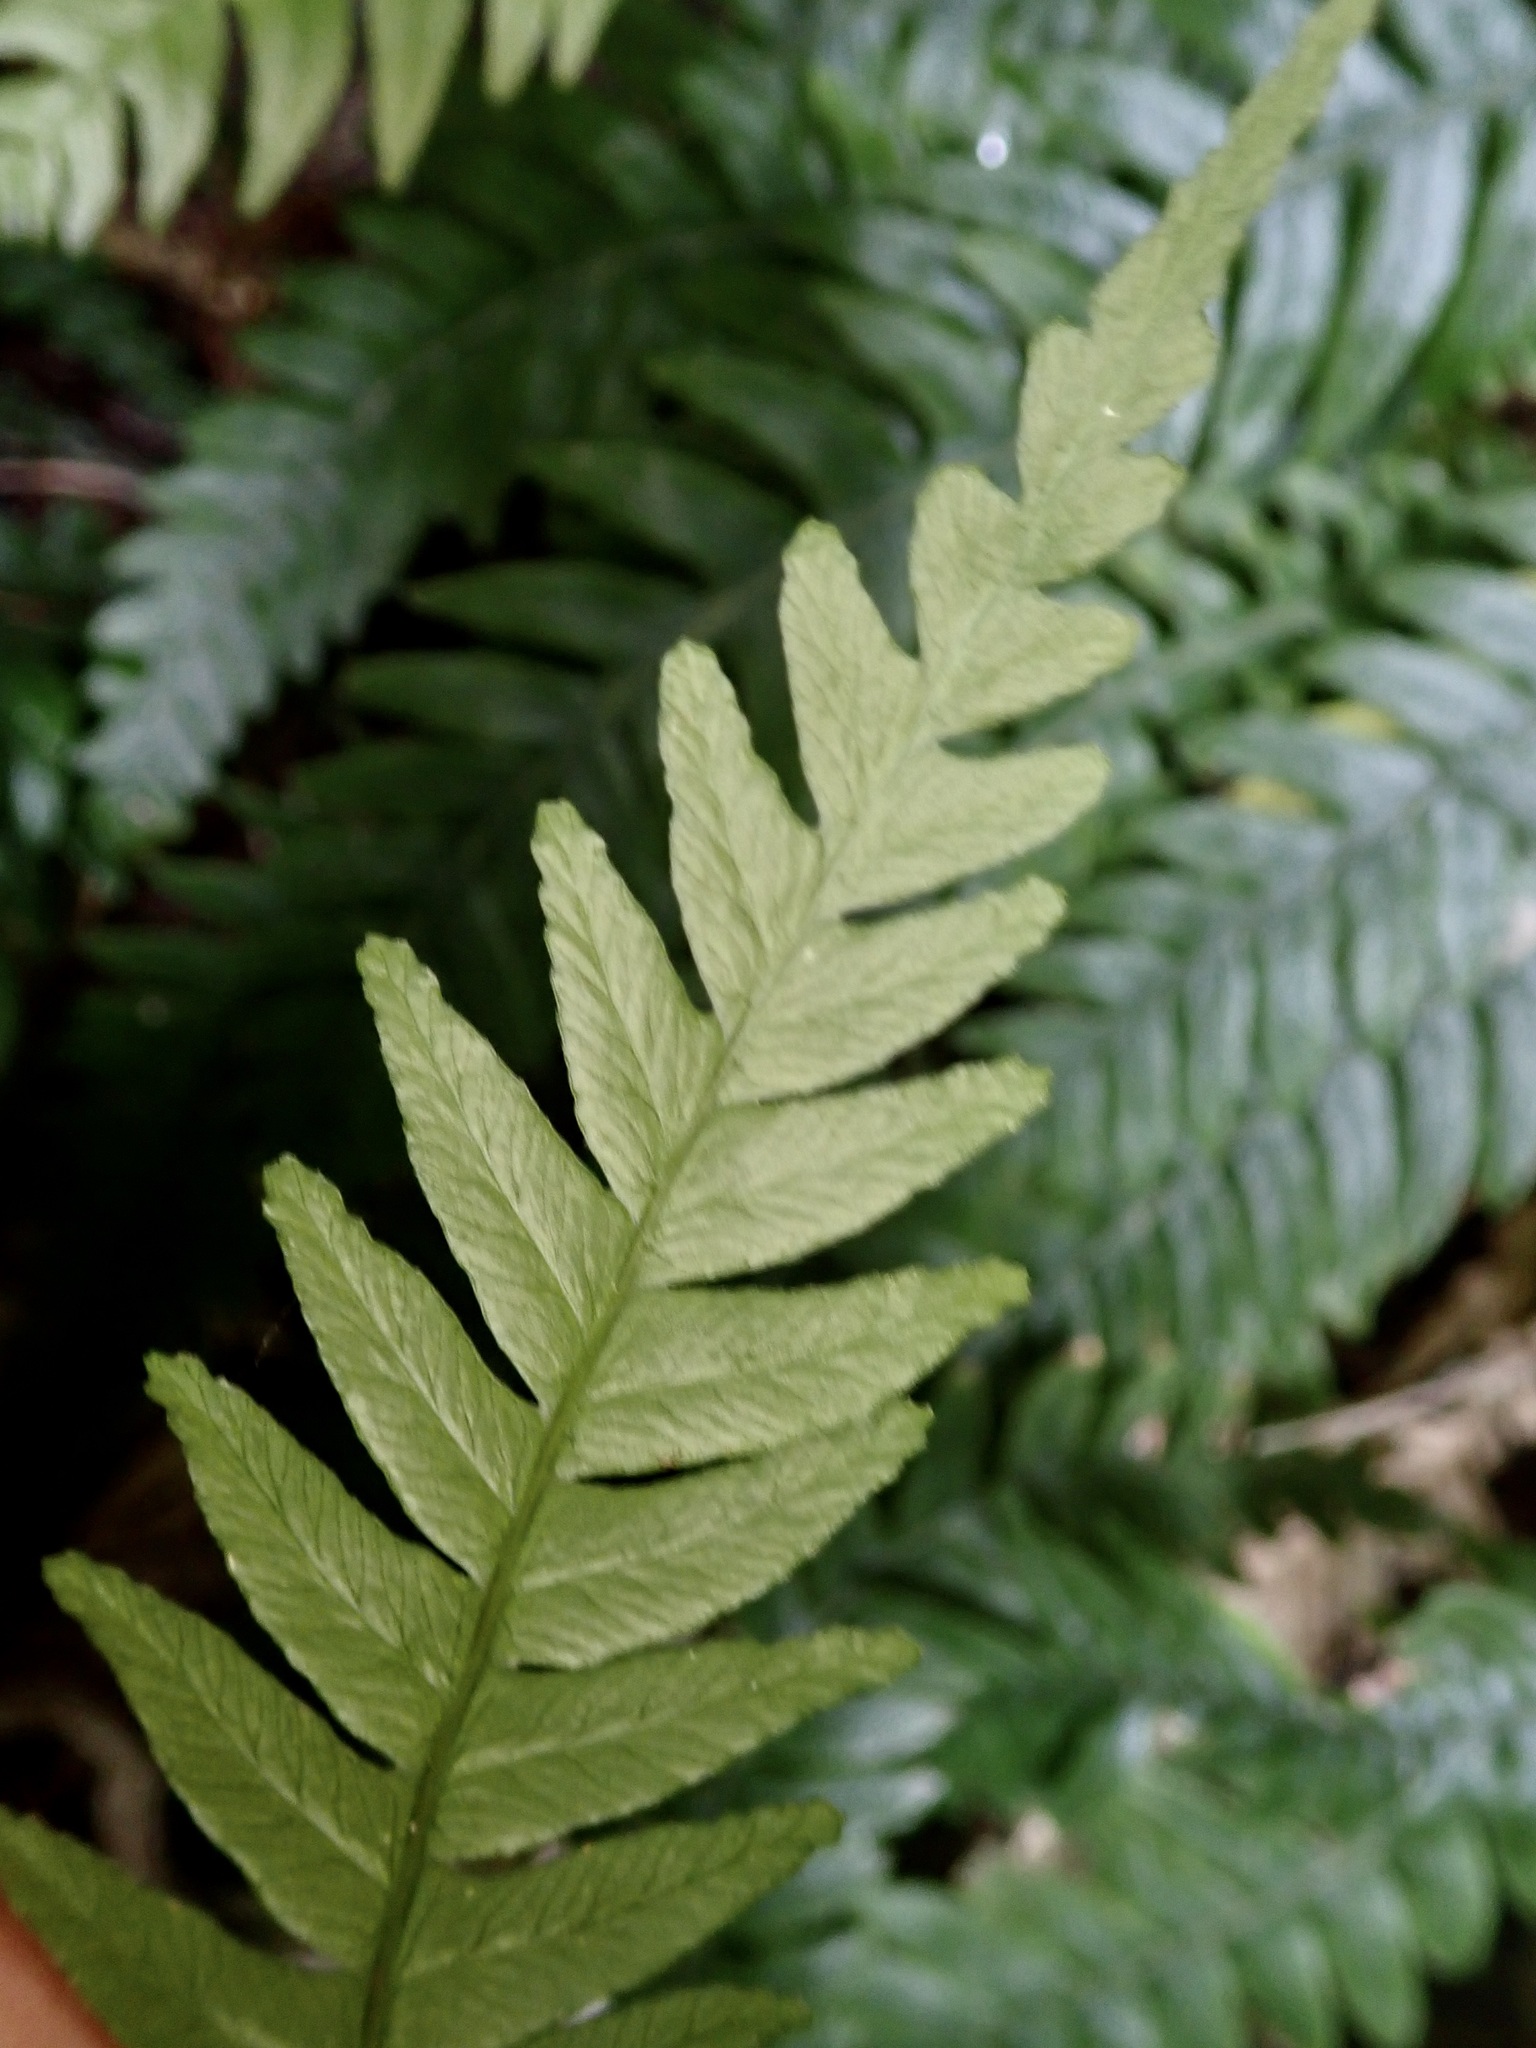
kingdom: Plantae
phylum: Tracheophyta
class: Polypodiopsida
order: Polypodiales
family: Blechnaceae
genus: Austroblechnum
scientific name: Austroblechnum lanceolatum
